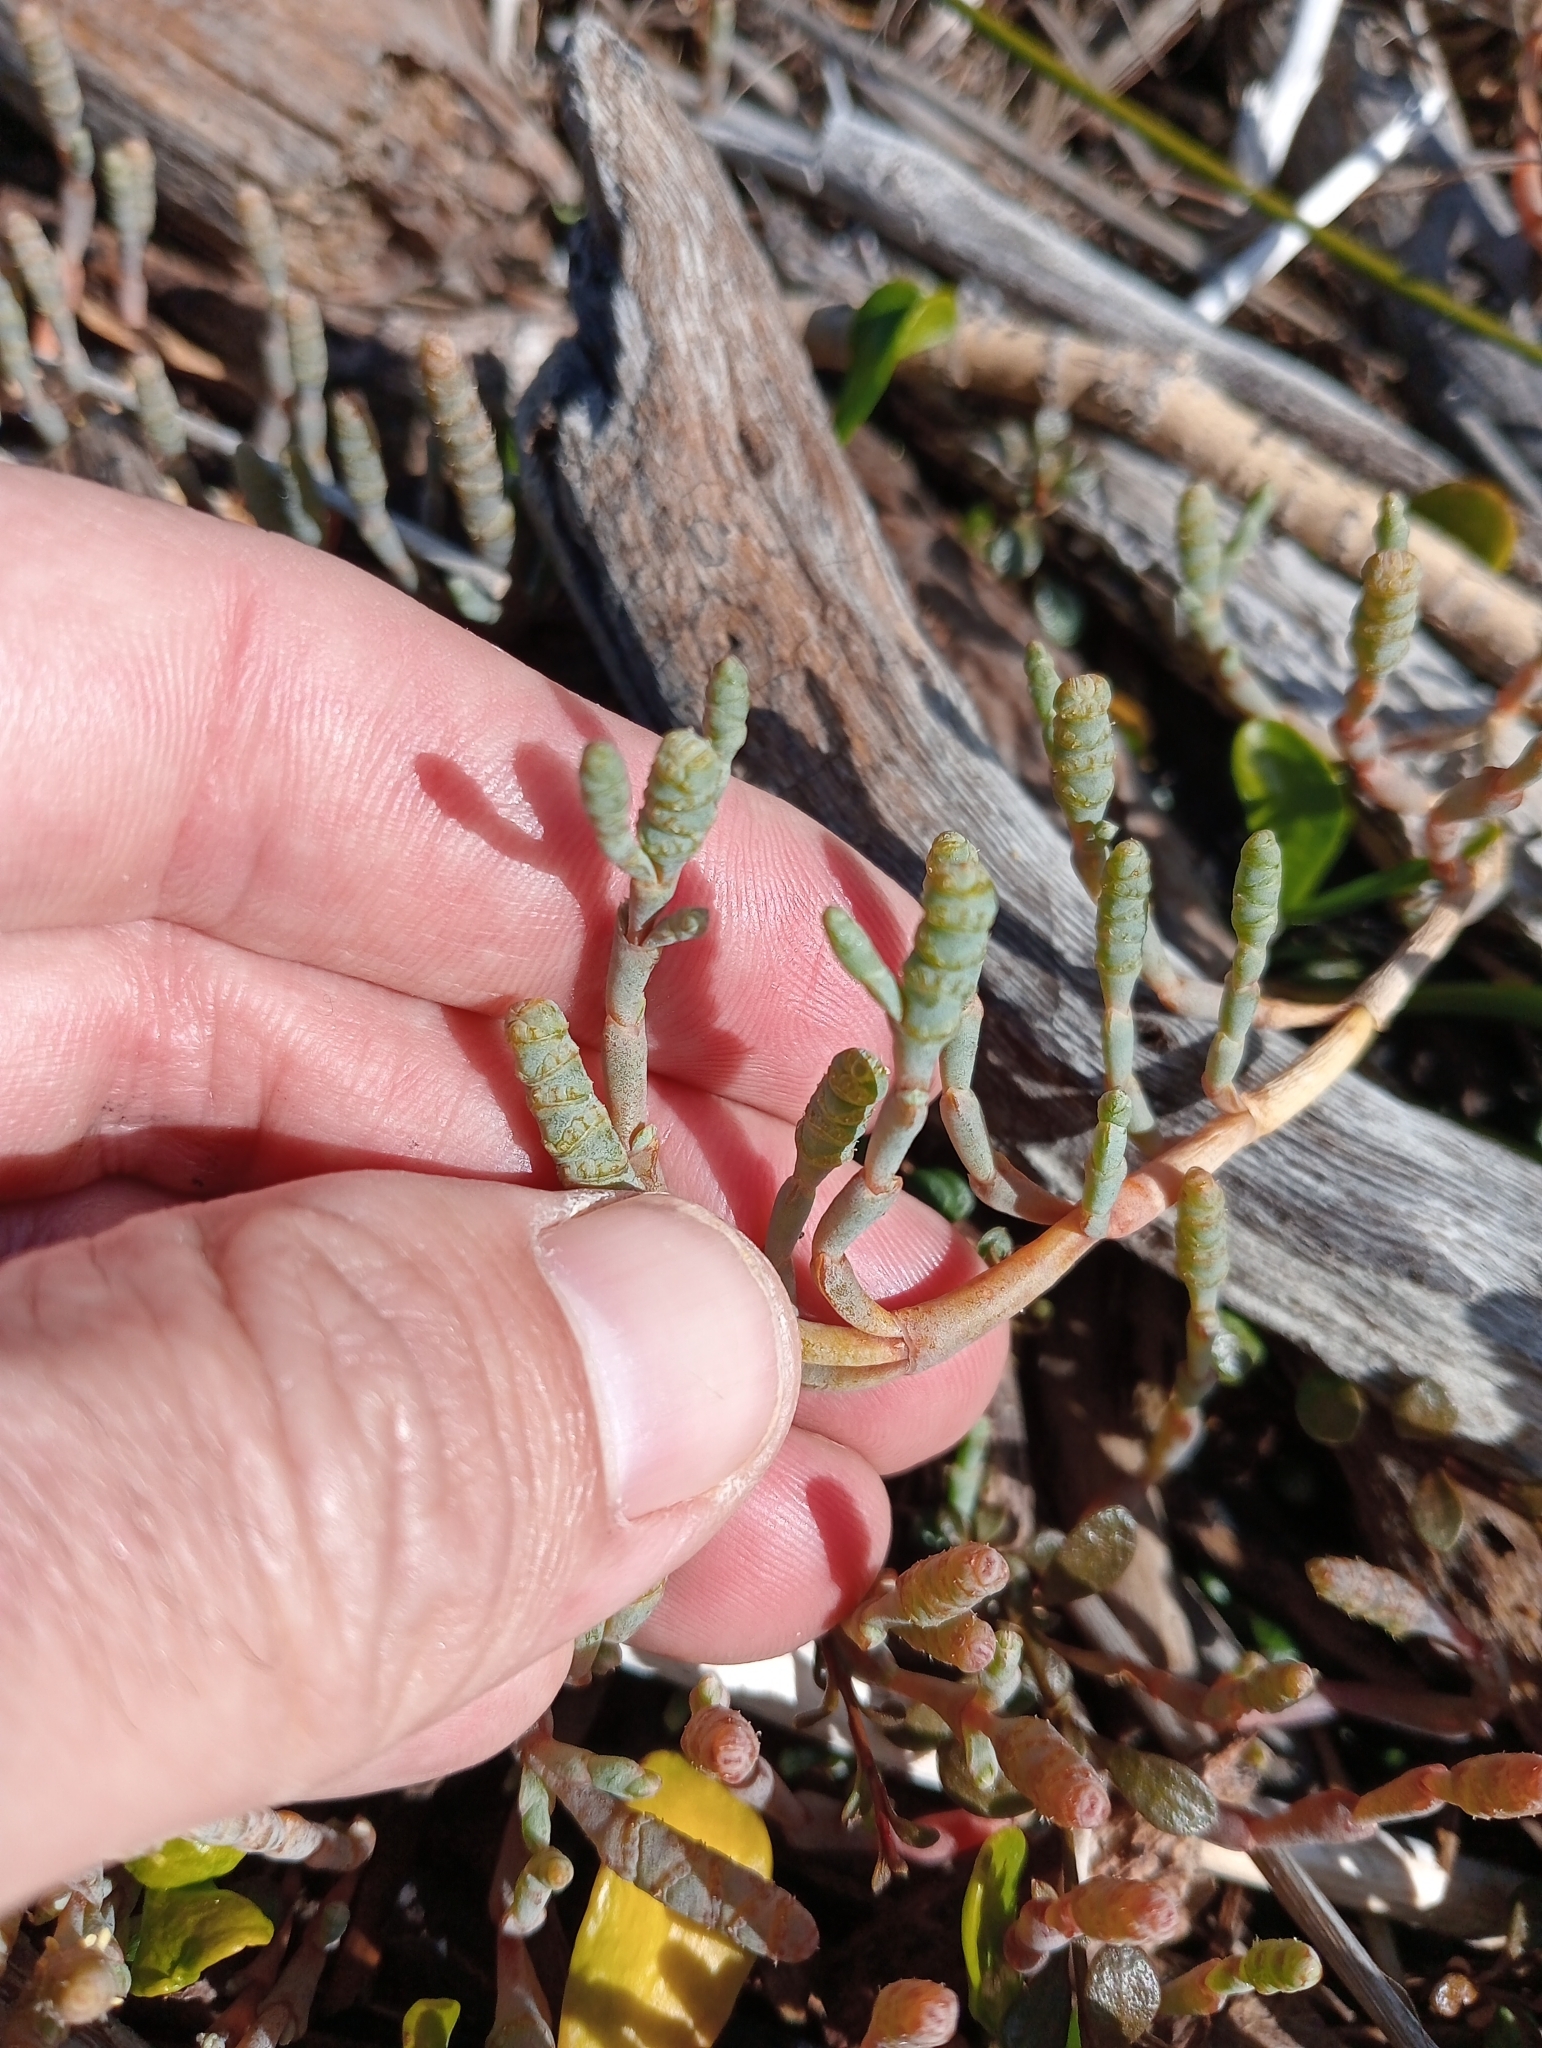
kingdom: Plantae
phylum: Tracheophyta
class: Magnoliopsida
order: Caryophyllales
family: Amaranthaceae
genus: Salicornia
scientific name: Salicornia quinqueflora
